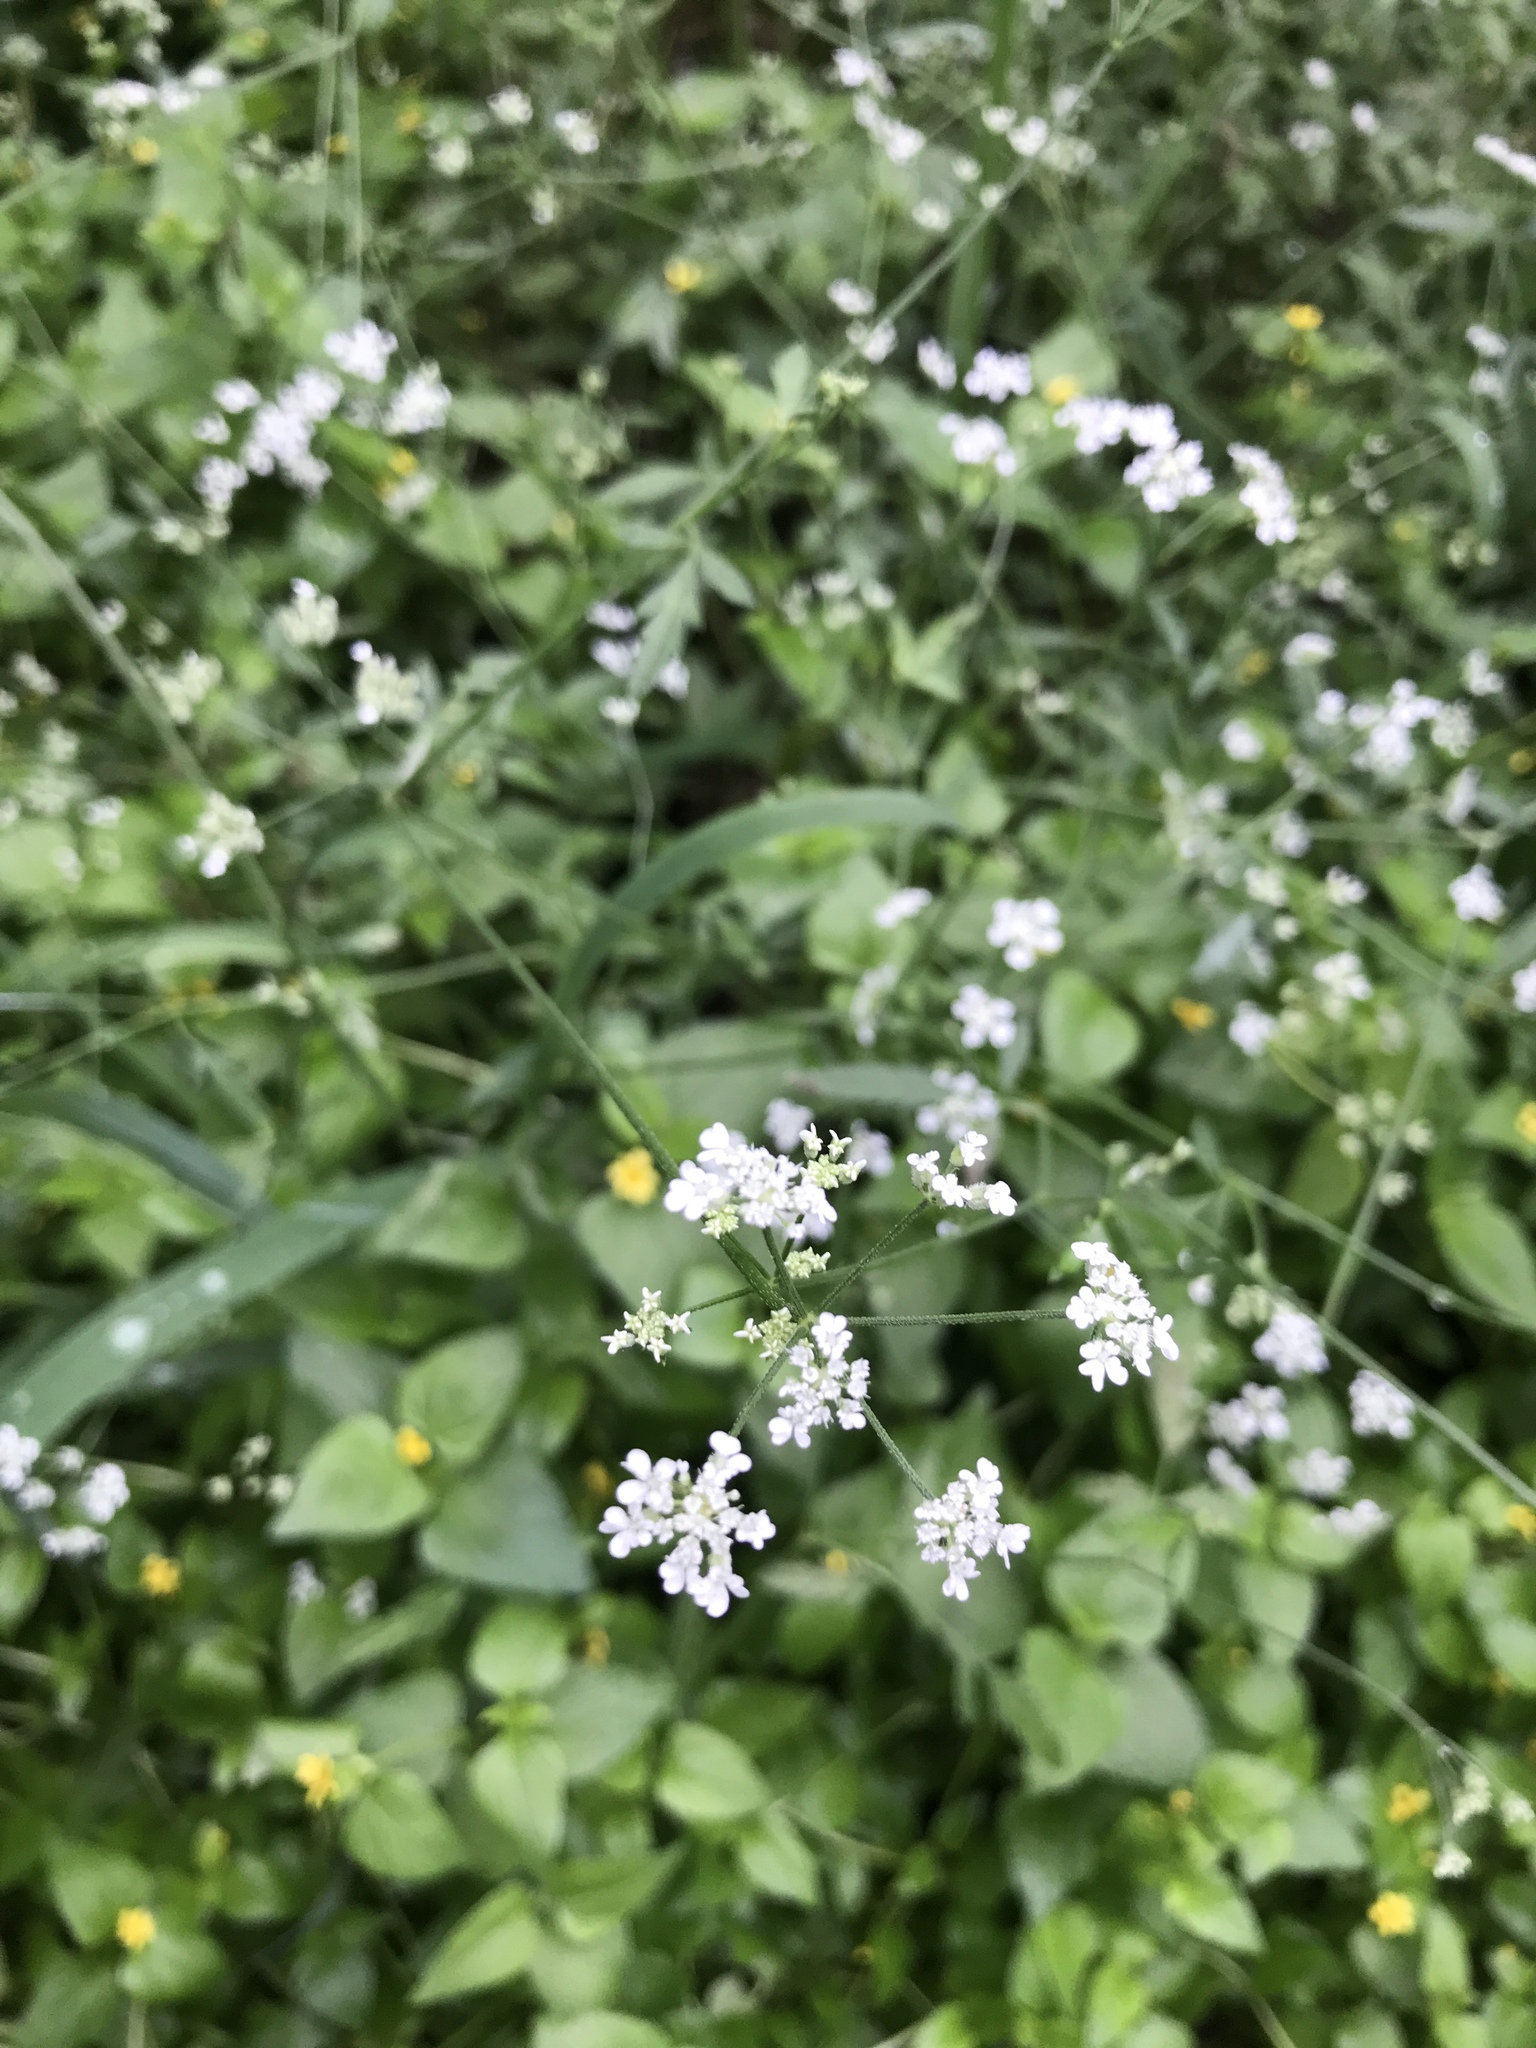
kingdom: Plantae
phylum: Tracheophyta
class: Magnoliopsida
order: Apiales
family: Apiaceae
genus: Torilis
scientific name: Torilis arvensis
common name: Spreading hedge-parsley
